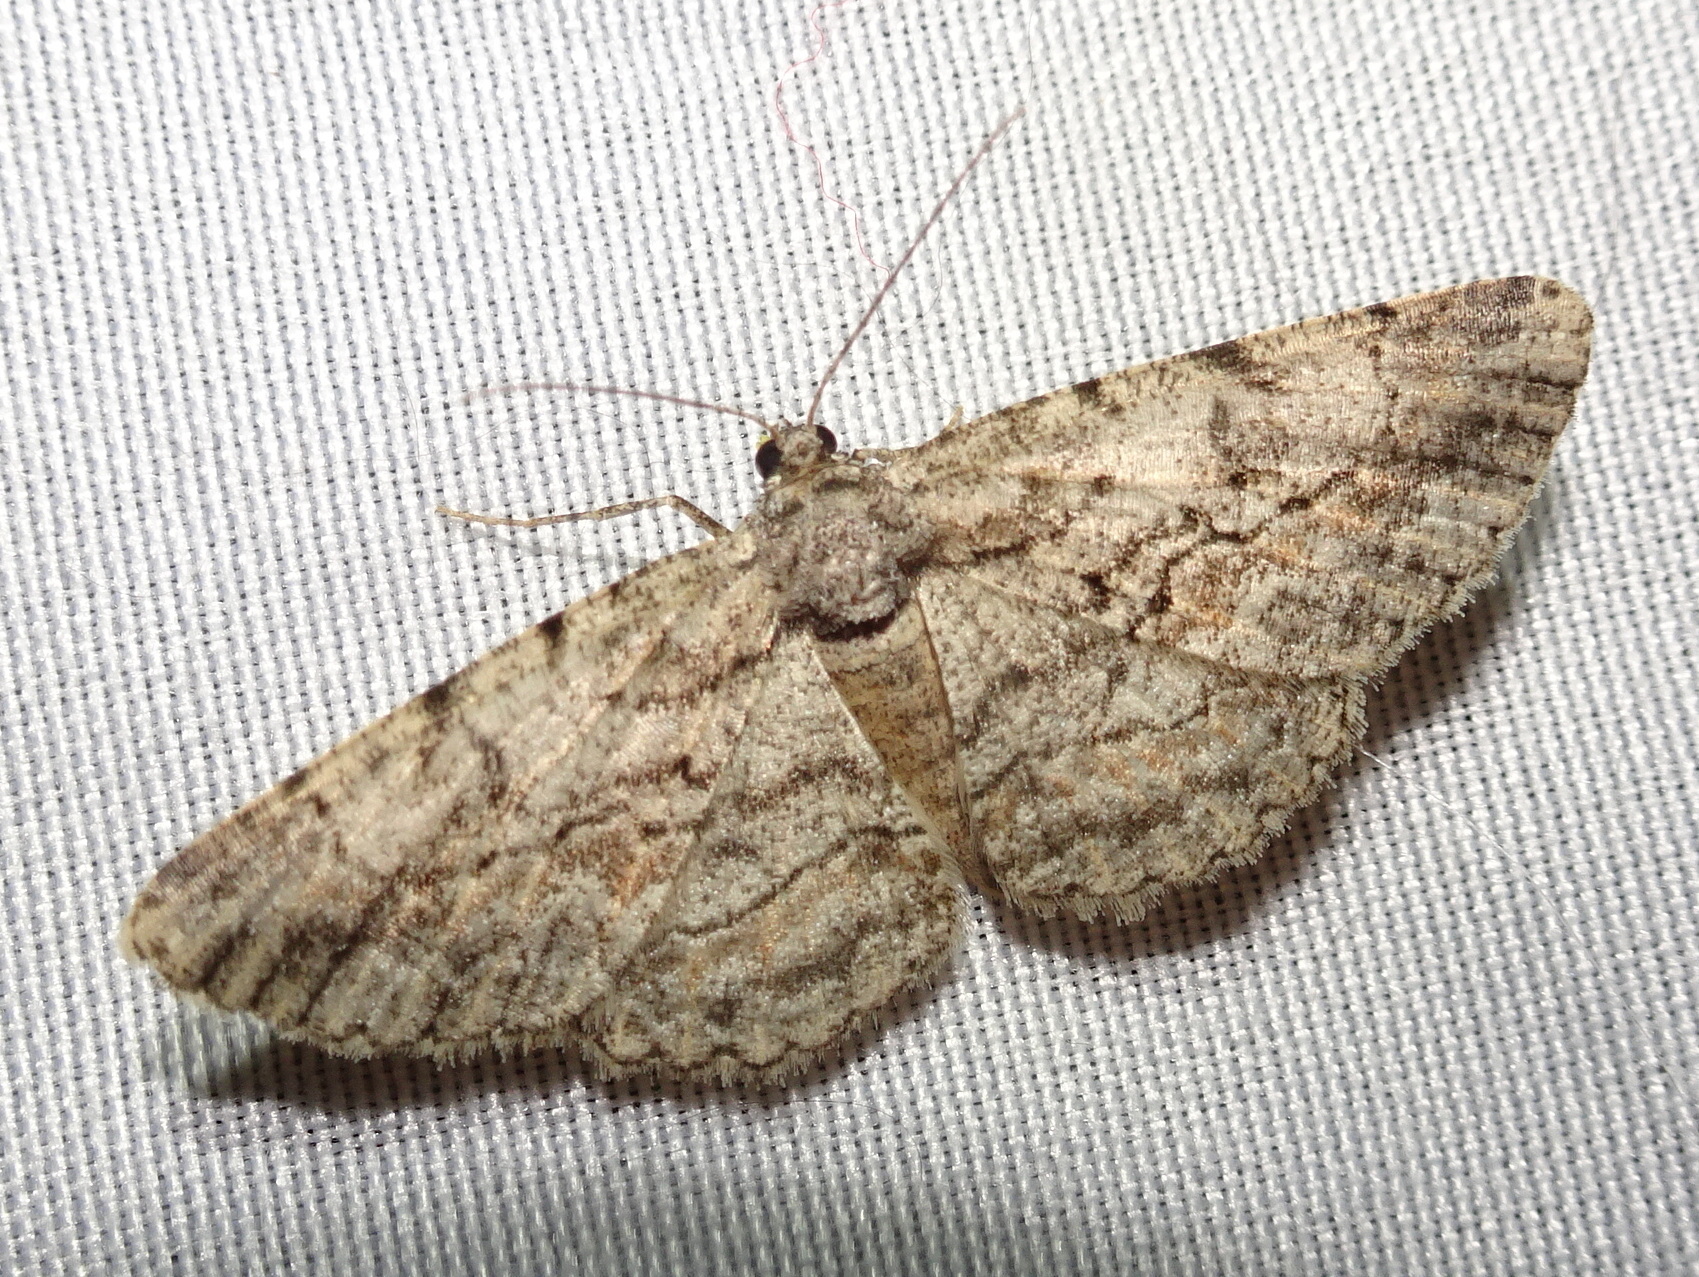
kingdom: Animalia
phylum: Arthropoda
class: Insecta
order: Lepidoptera
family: Geometridae
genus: Anavitrinella
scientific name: Anavitrinella pampinaria
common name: Common gray
